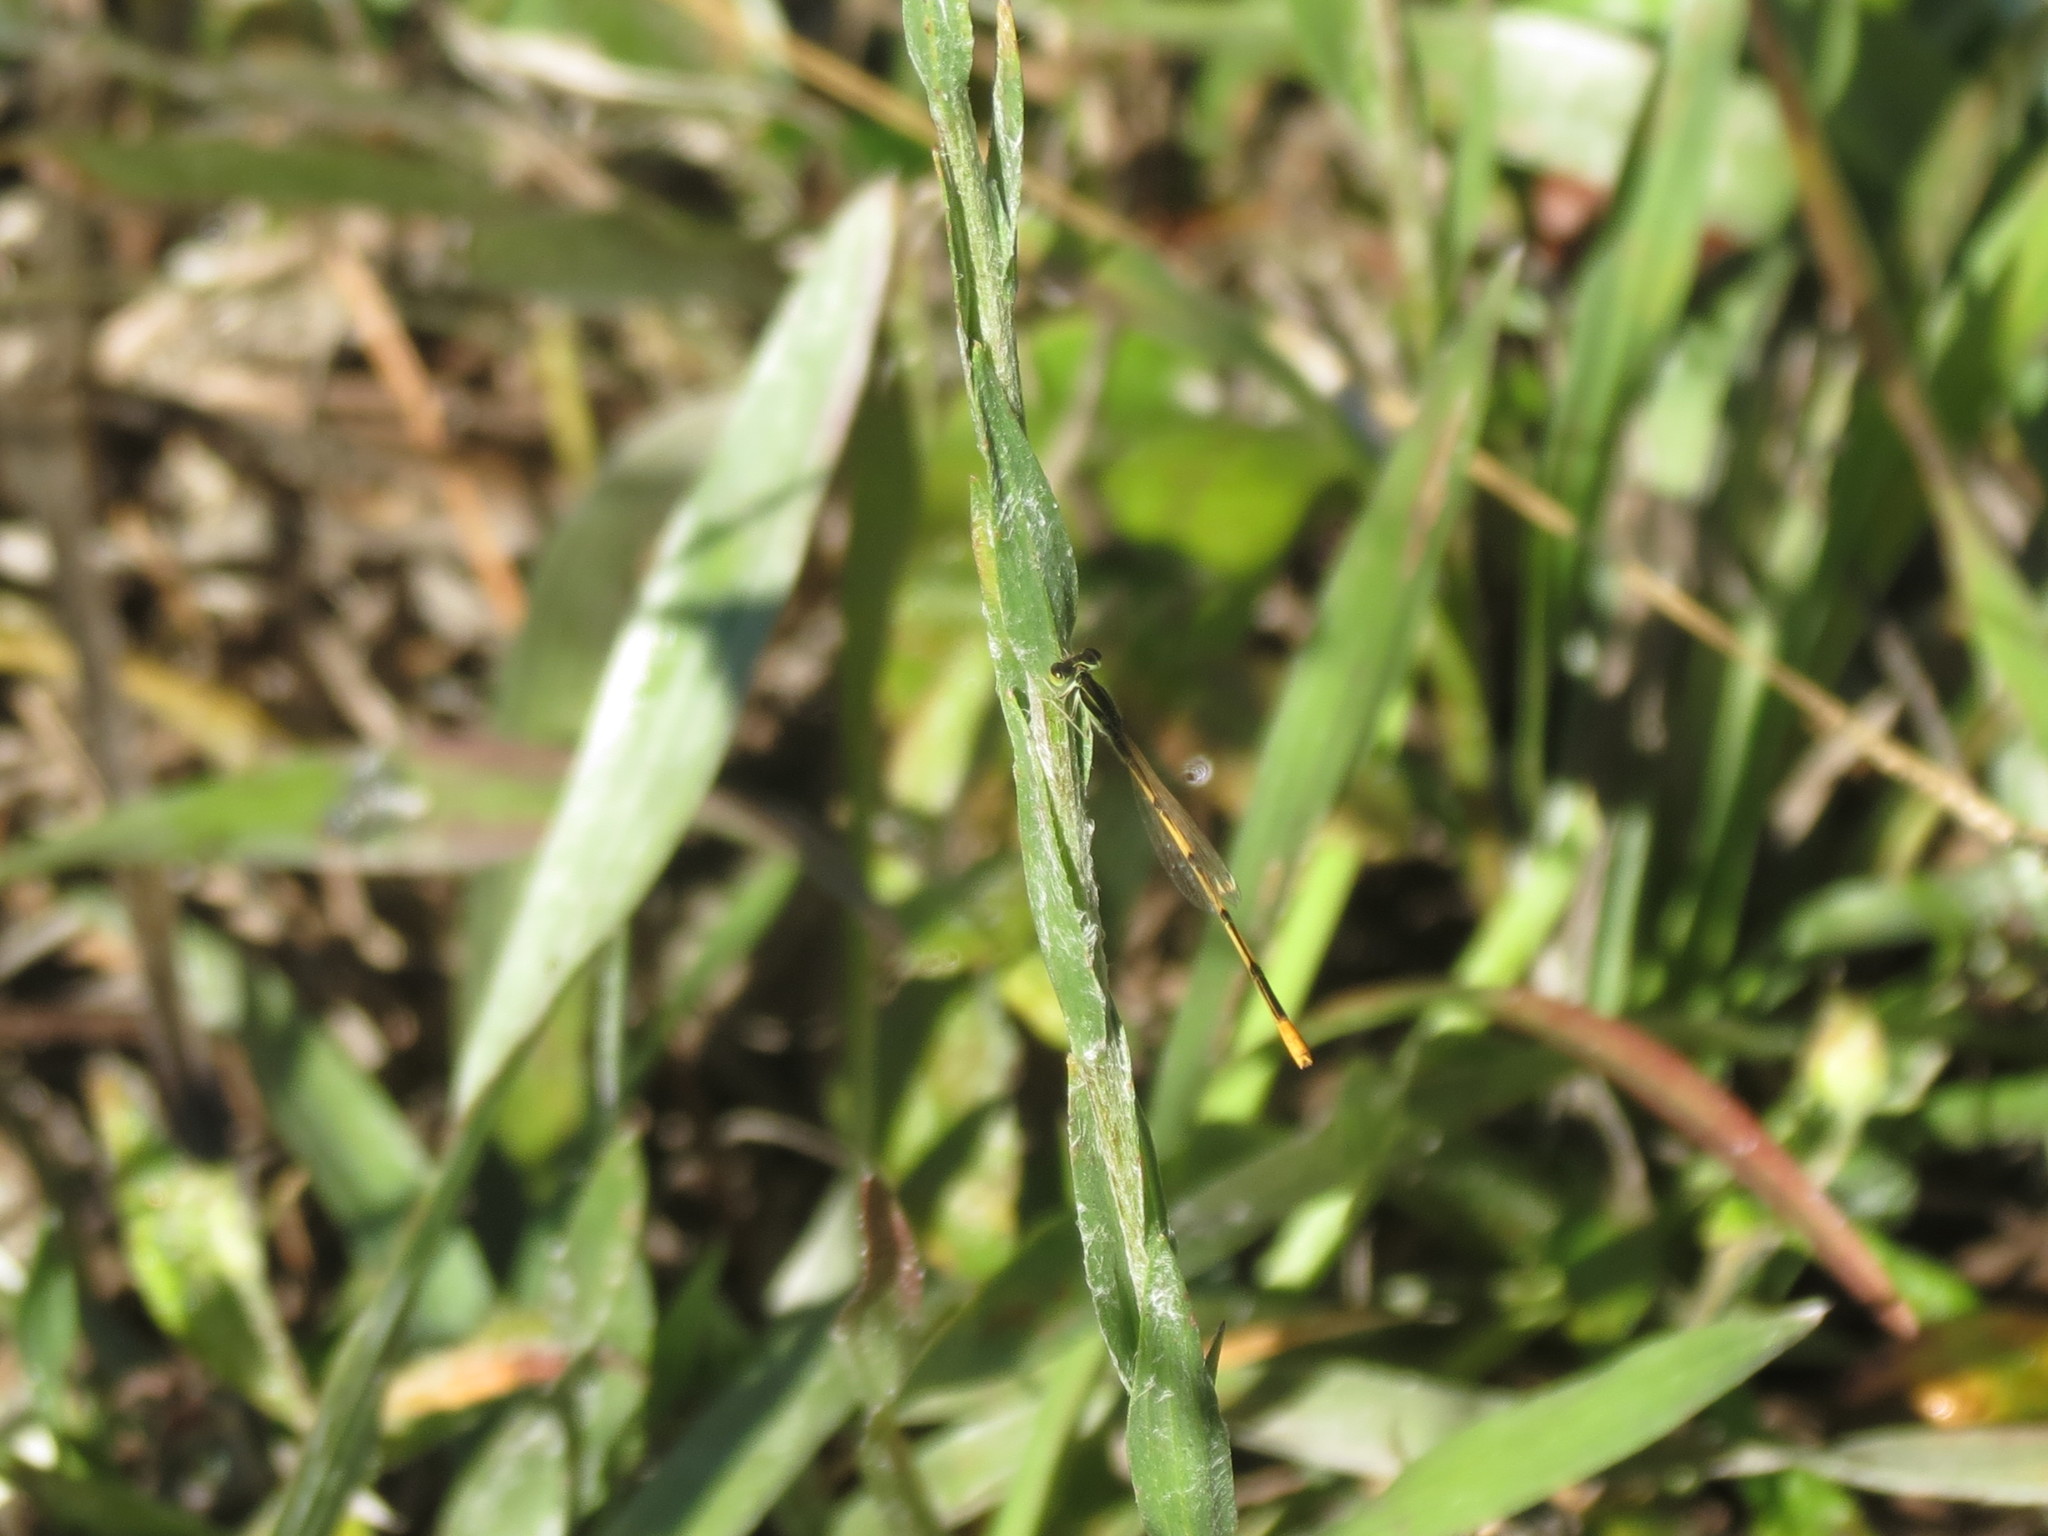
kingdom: Animalia
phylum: Arthropoda
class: Insecta
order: Odonata
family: Coenagrionidae
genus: Ischnura
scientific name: Ischnura hastata
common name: Citrine forktail
